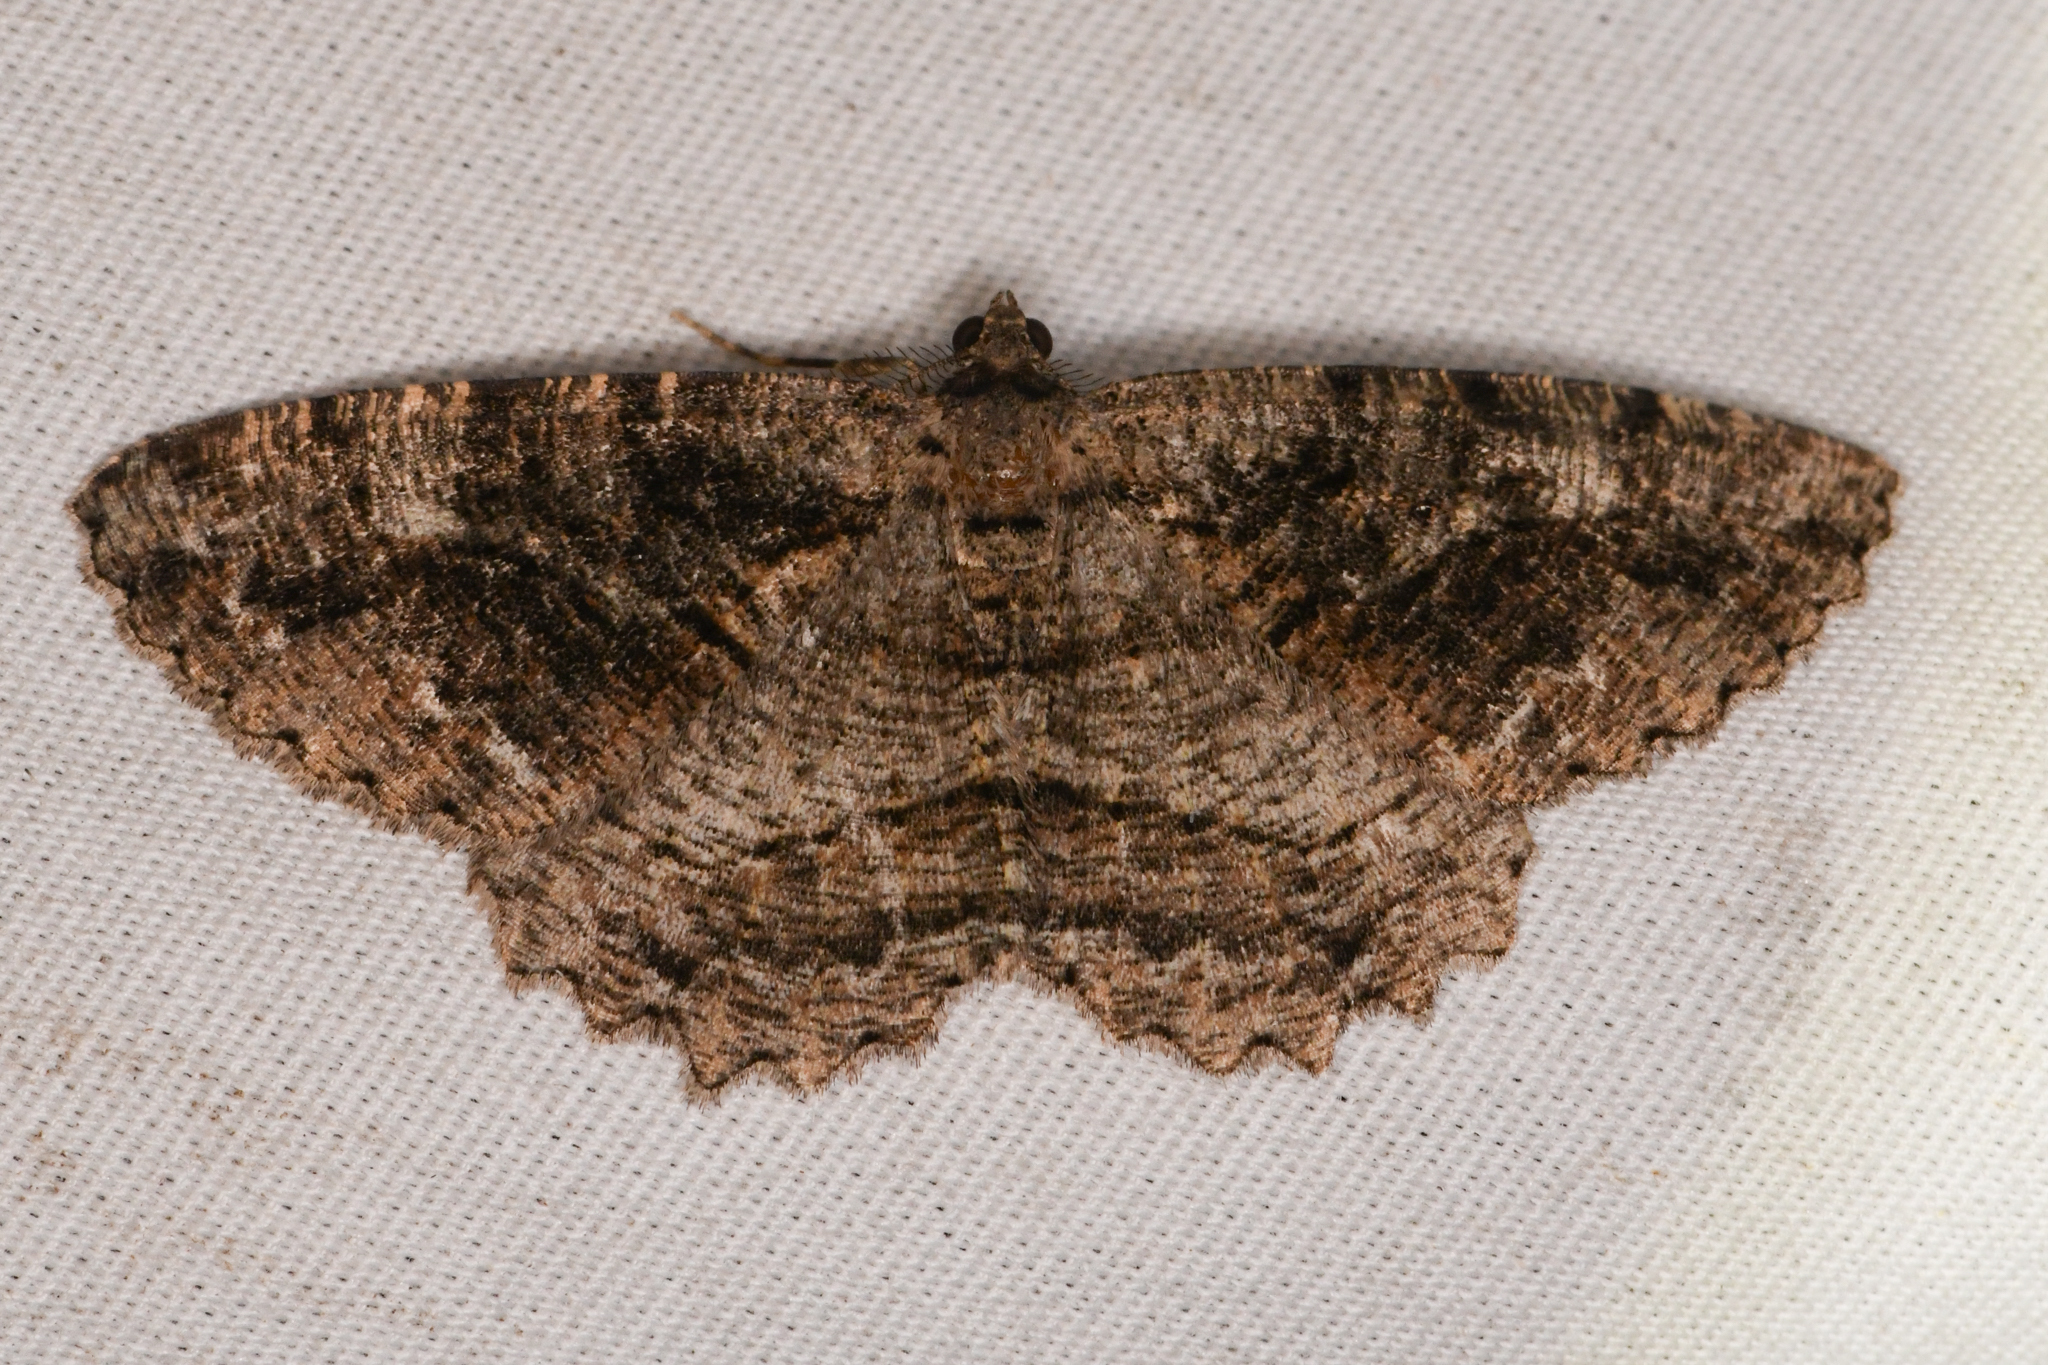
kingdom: Animalia
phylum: Arthropoda
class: Insecta
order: Lepidoptera
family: Geometridae
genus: Neoalcis
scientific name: Neoalcis californiaria
